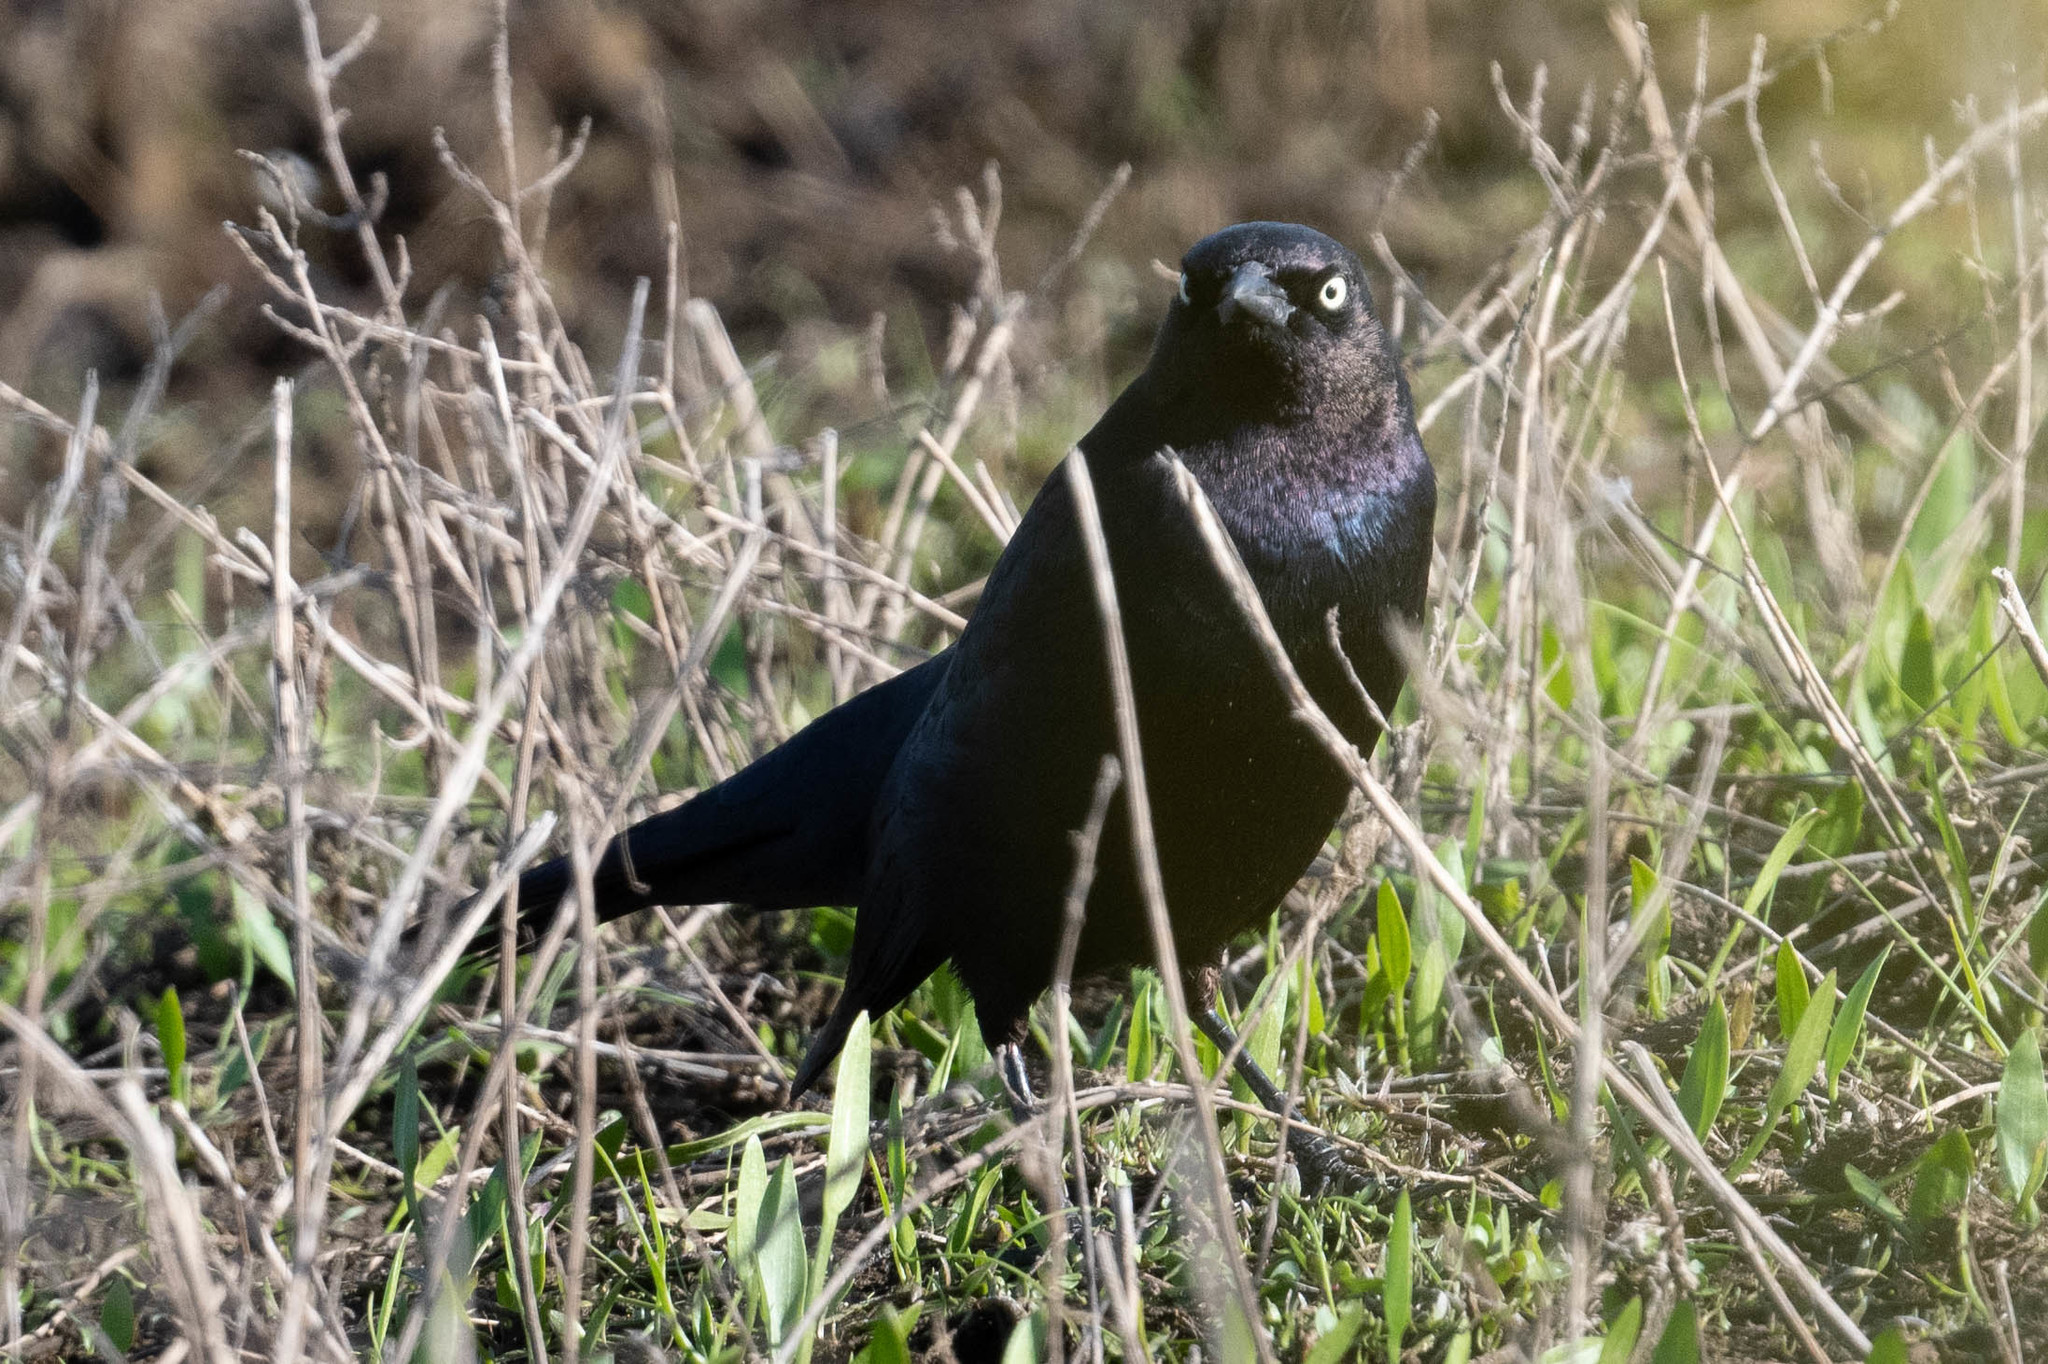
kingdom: Animalia
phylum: Chordata
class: Aves
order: Passeriformes
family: Icteridae
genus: Euphagus
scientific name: Euphagus cyanocephalus
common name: Brewer's blackbird
